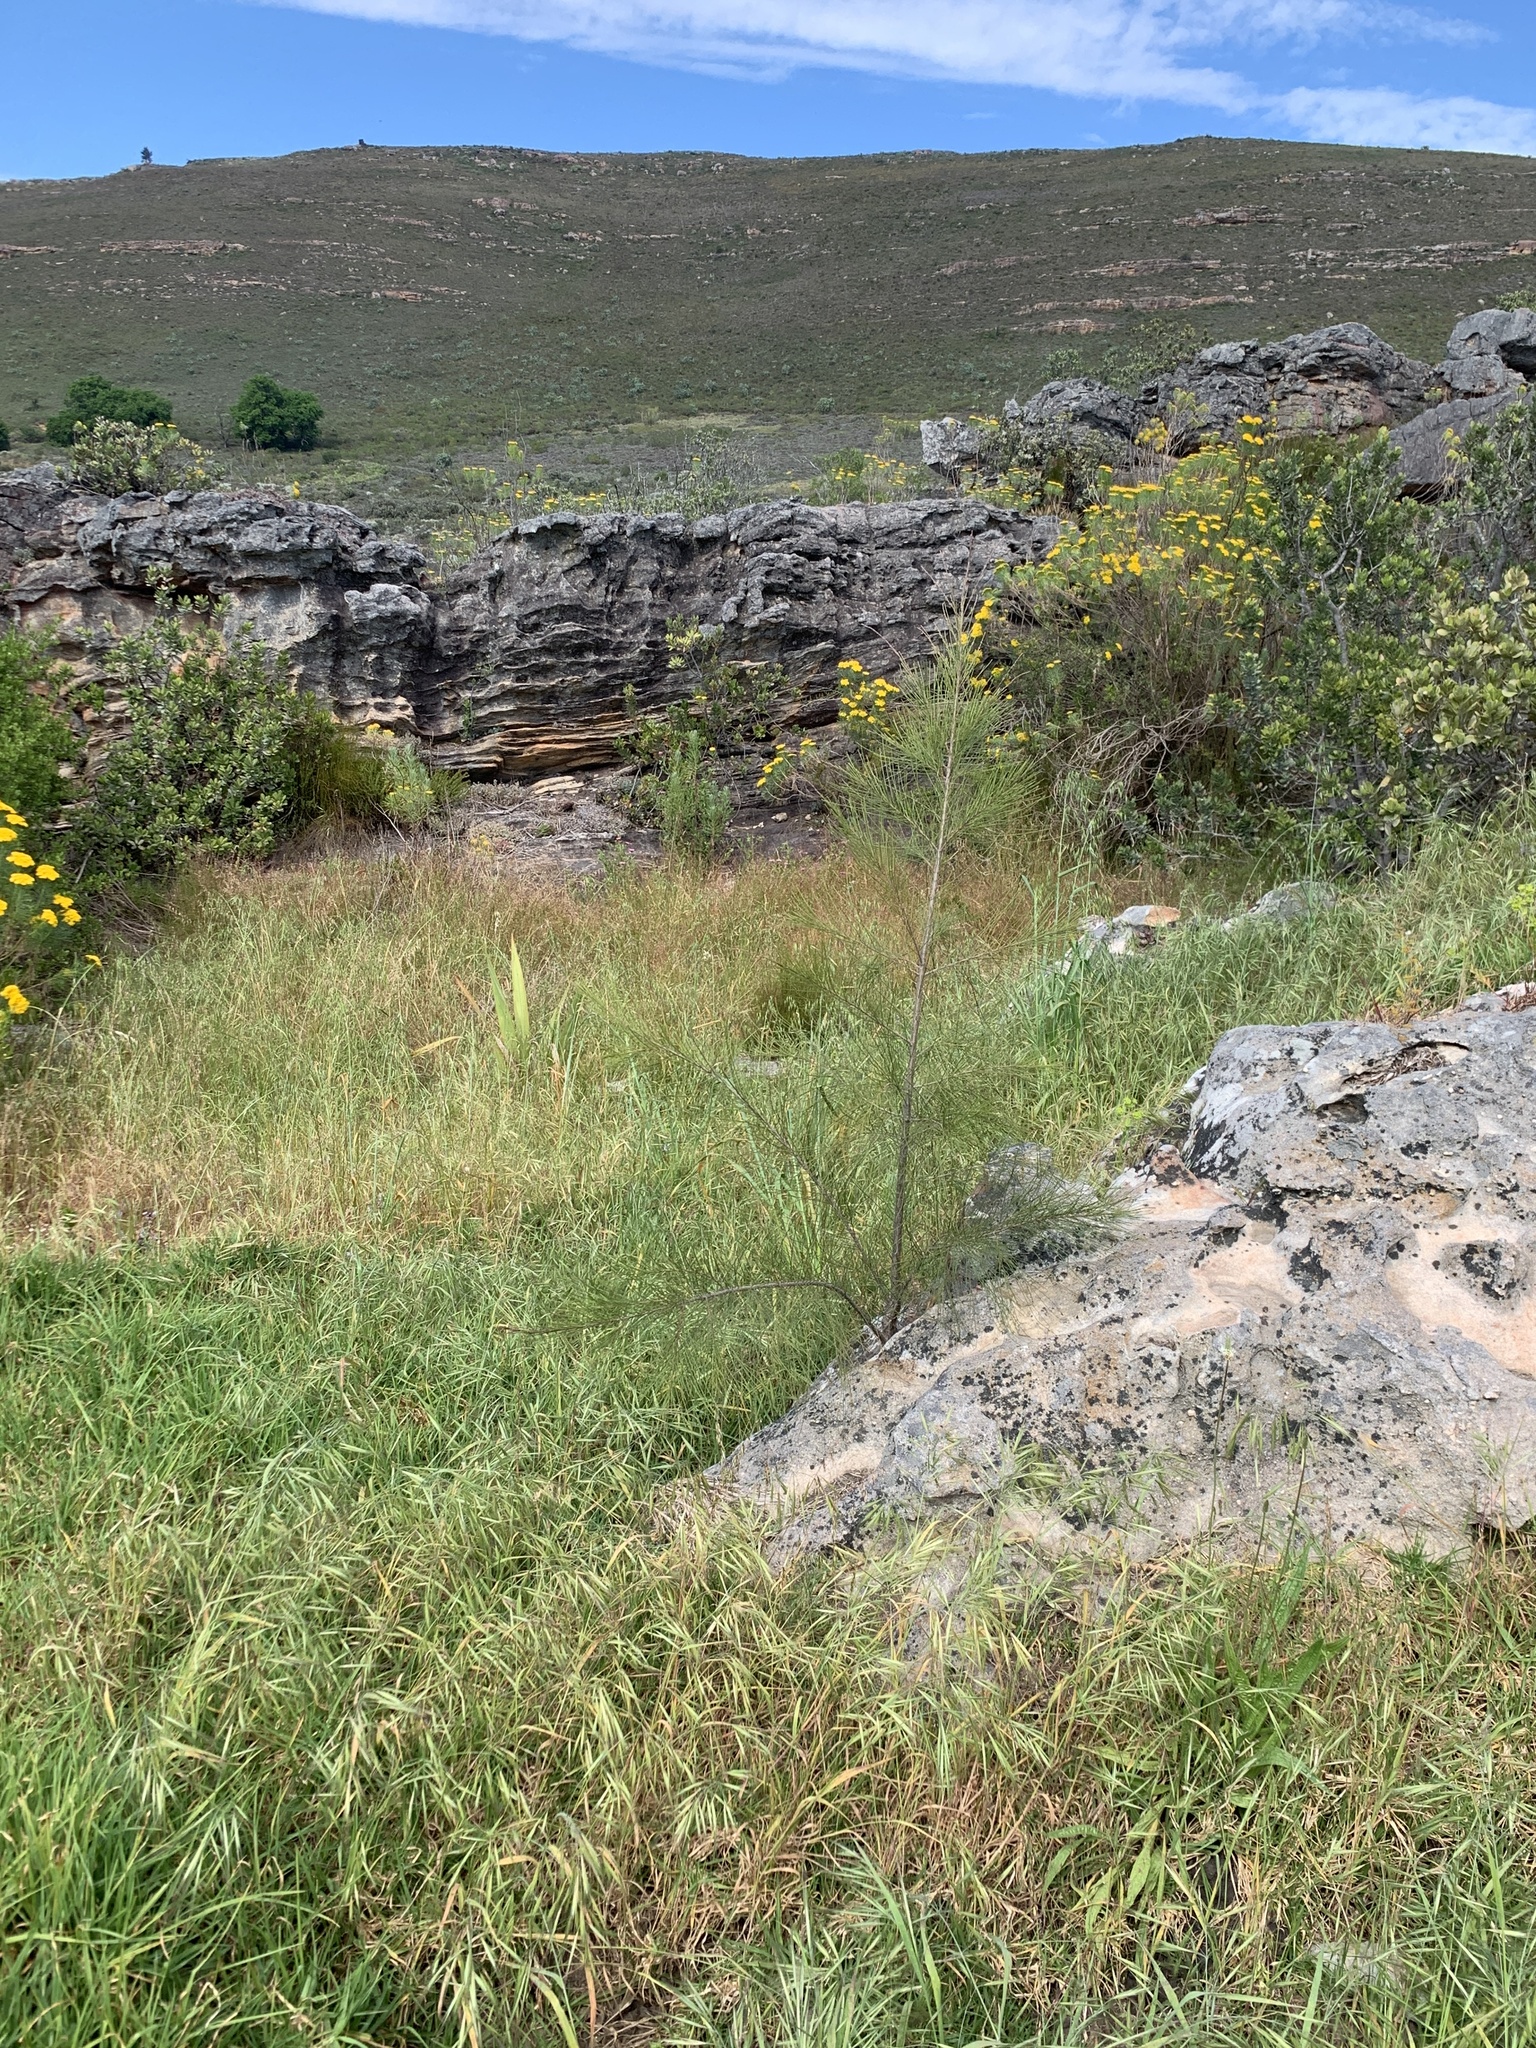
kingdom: Plantae
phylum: Tracheophyta
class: Magnoliopsida
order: Fagales
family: Casuarinaceae
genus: Casuarina
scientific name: Casuarina cunninghamiana
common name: River sheoak
